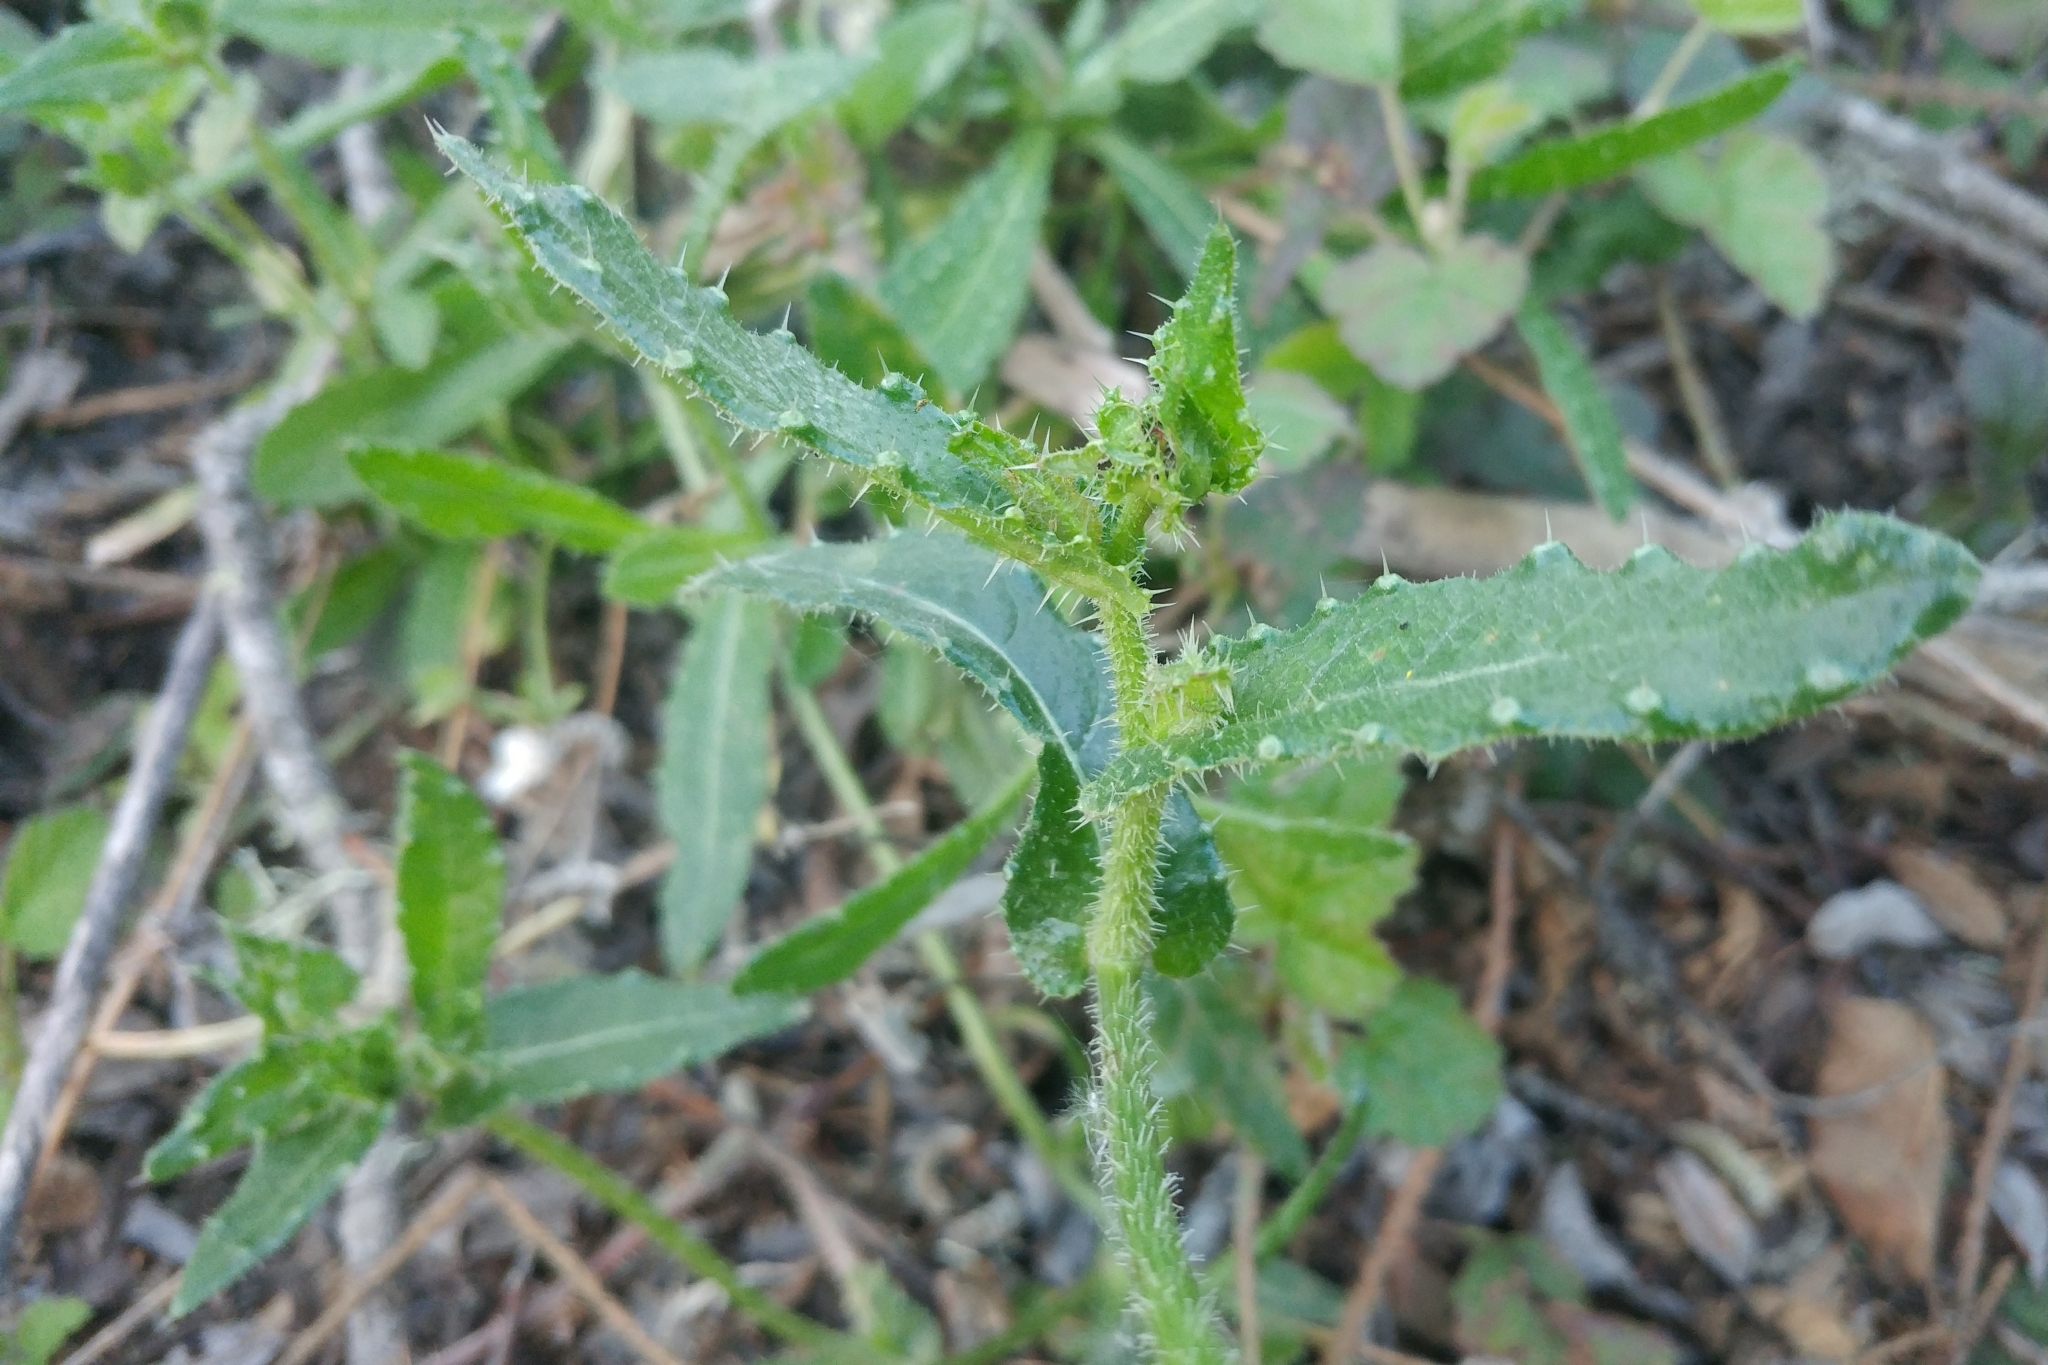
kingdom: Plantae
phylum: Tracheophyta
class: Magnoliopsida
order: Asterales
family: Asteraceae
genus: Helminthotheca
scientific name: Helminthotheca echioides
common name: Ox-tongue
